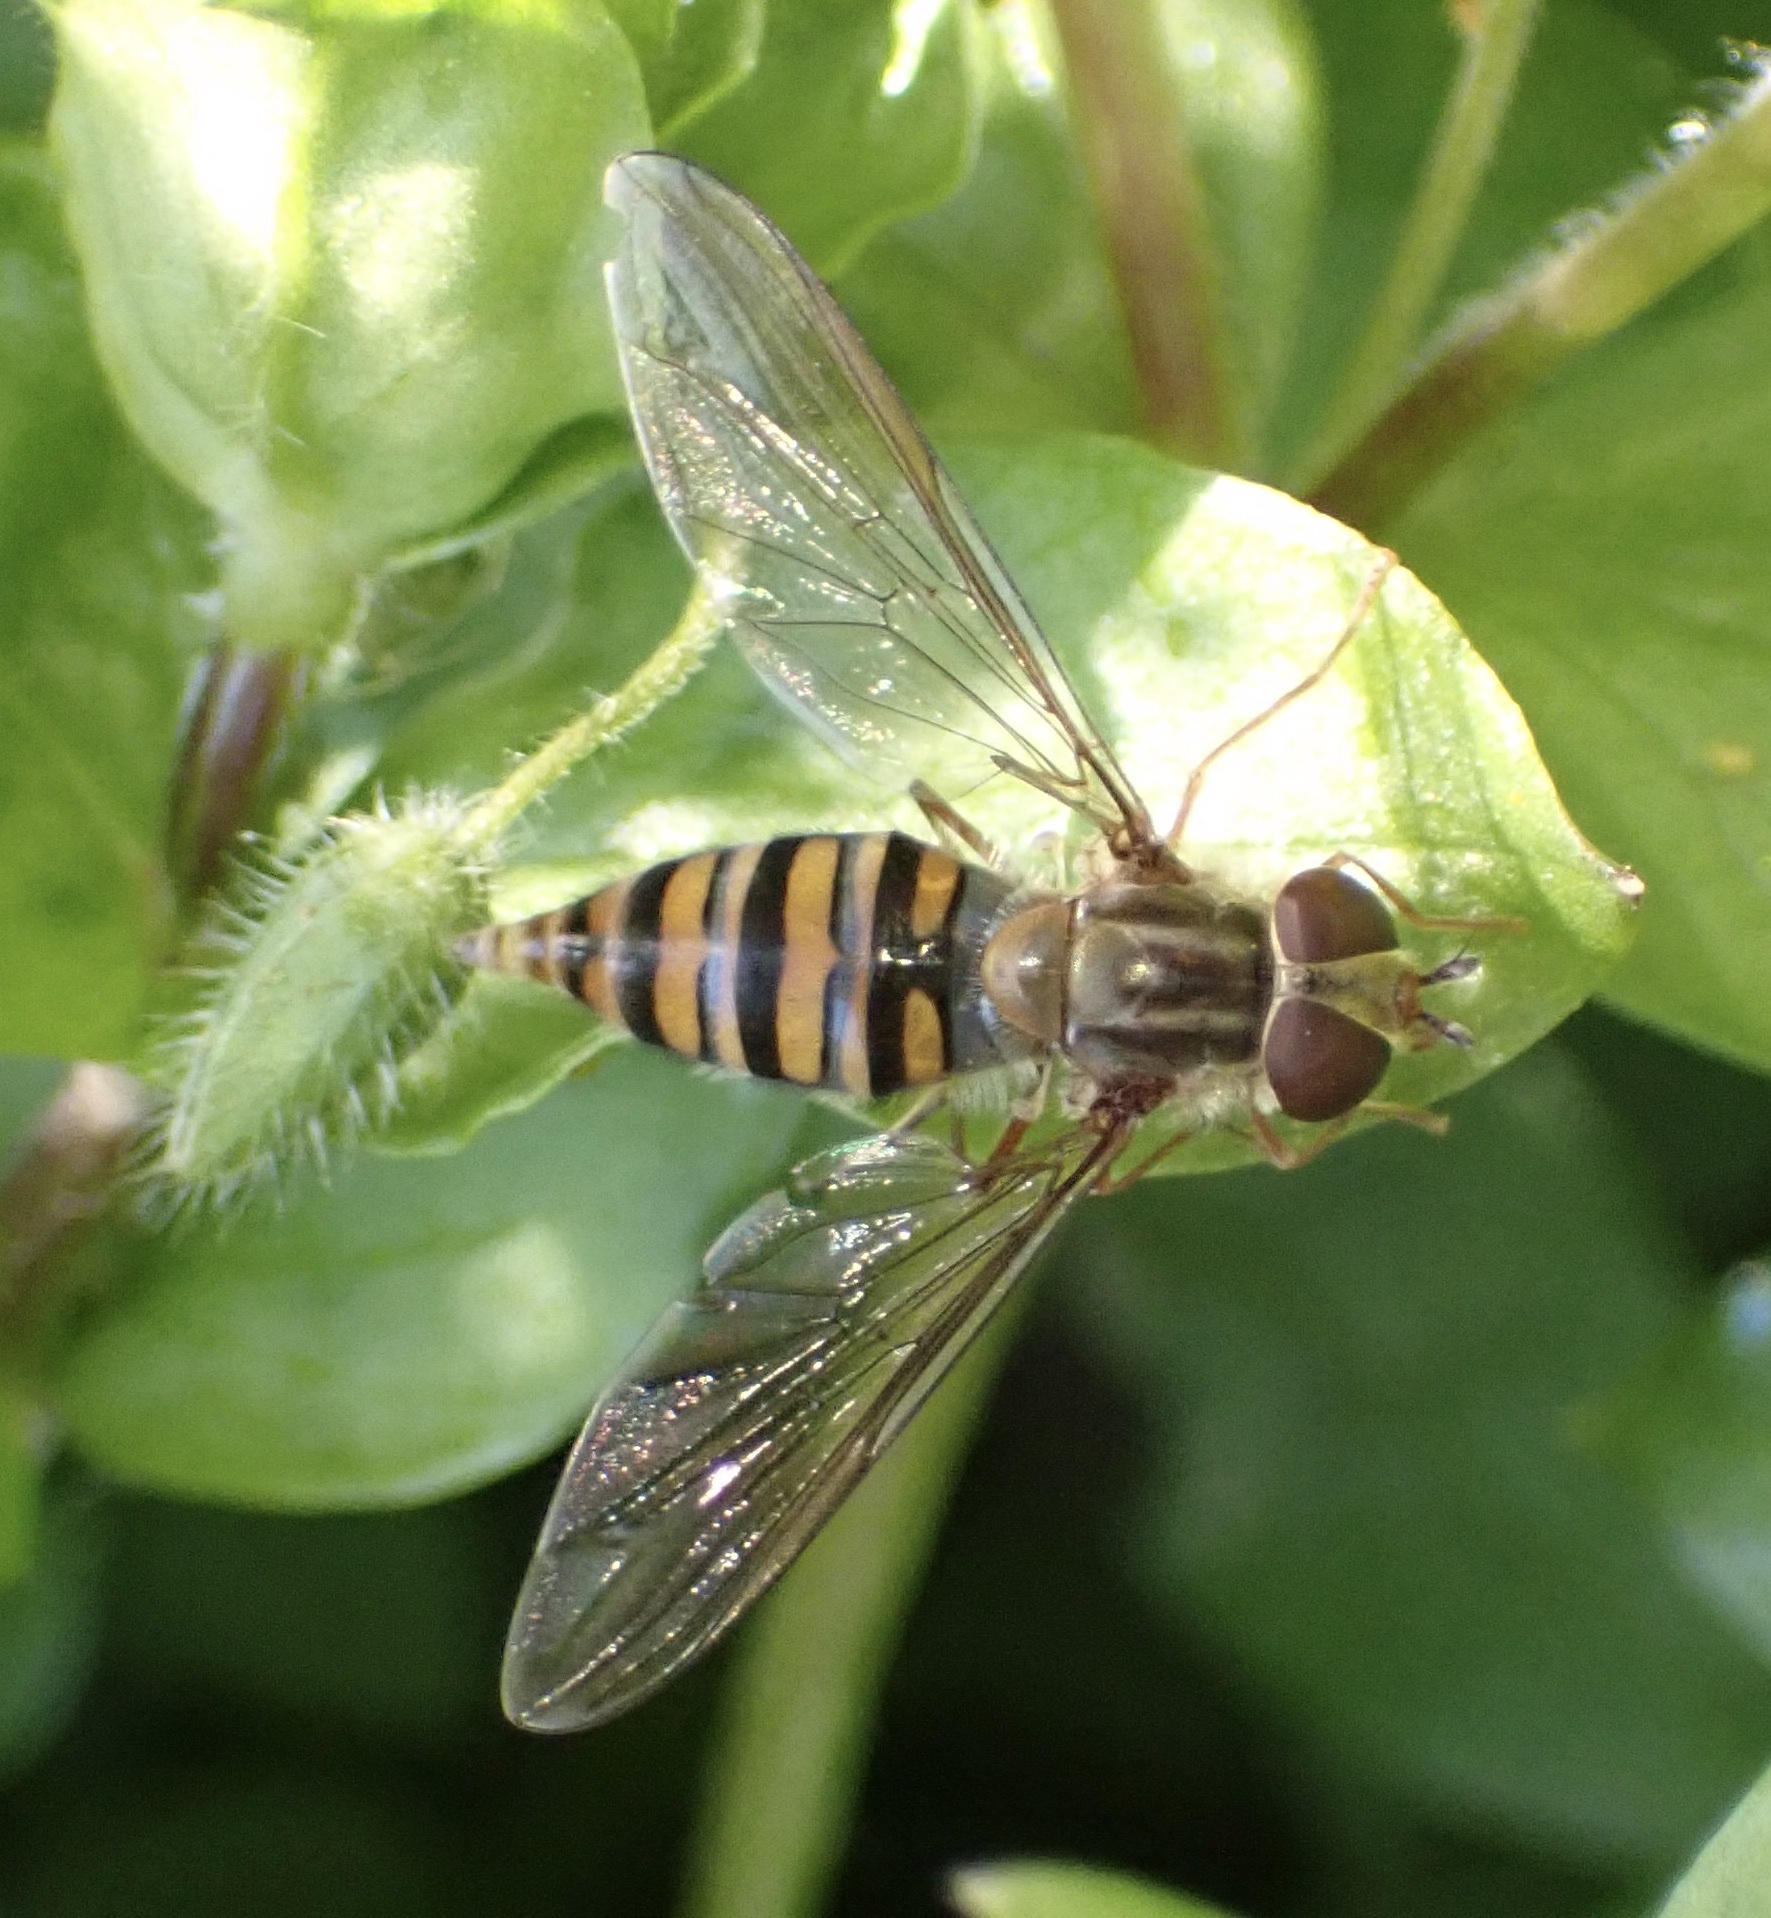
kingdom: Animalia
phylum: Arthropoda
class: Insecta
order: Diptera
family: Syrphidae
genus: Episyrphus
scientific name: Episyrphus balteatus
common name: Marmalade hoverfly
